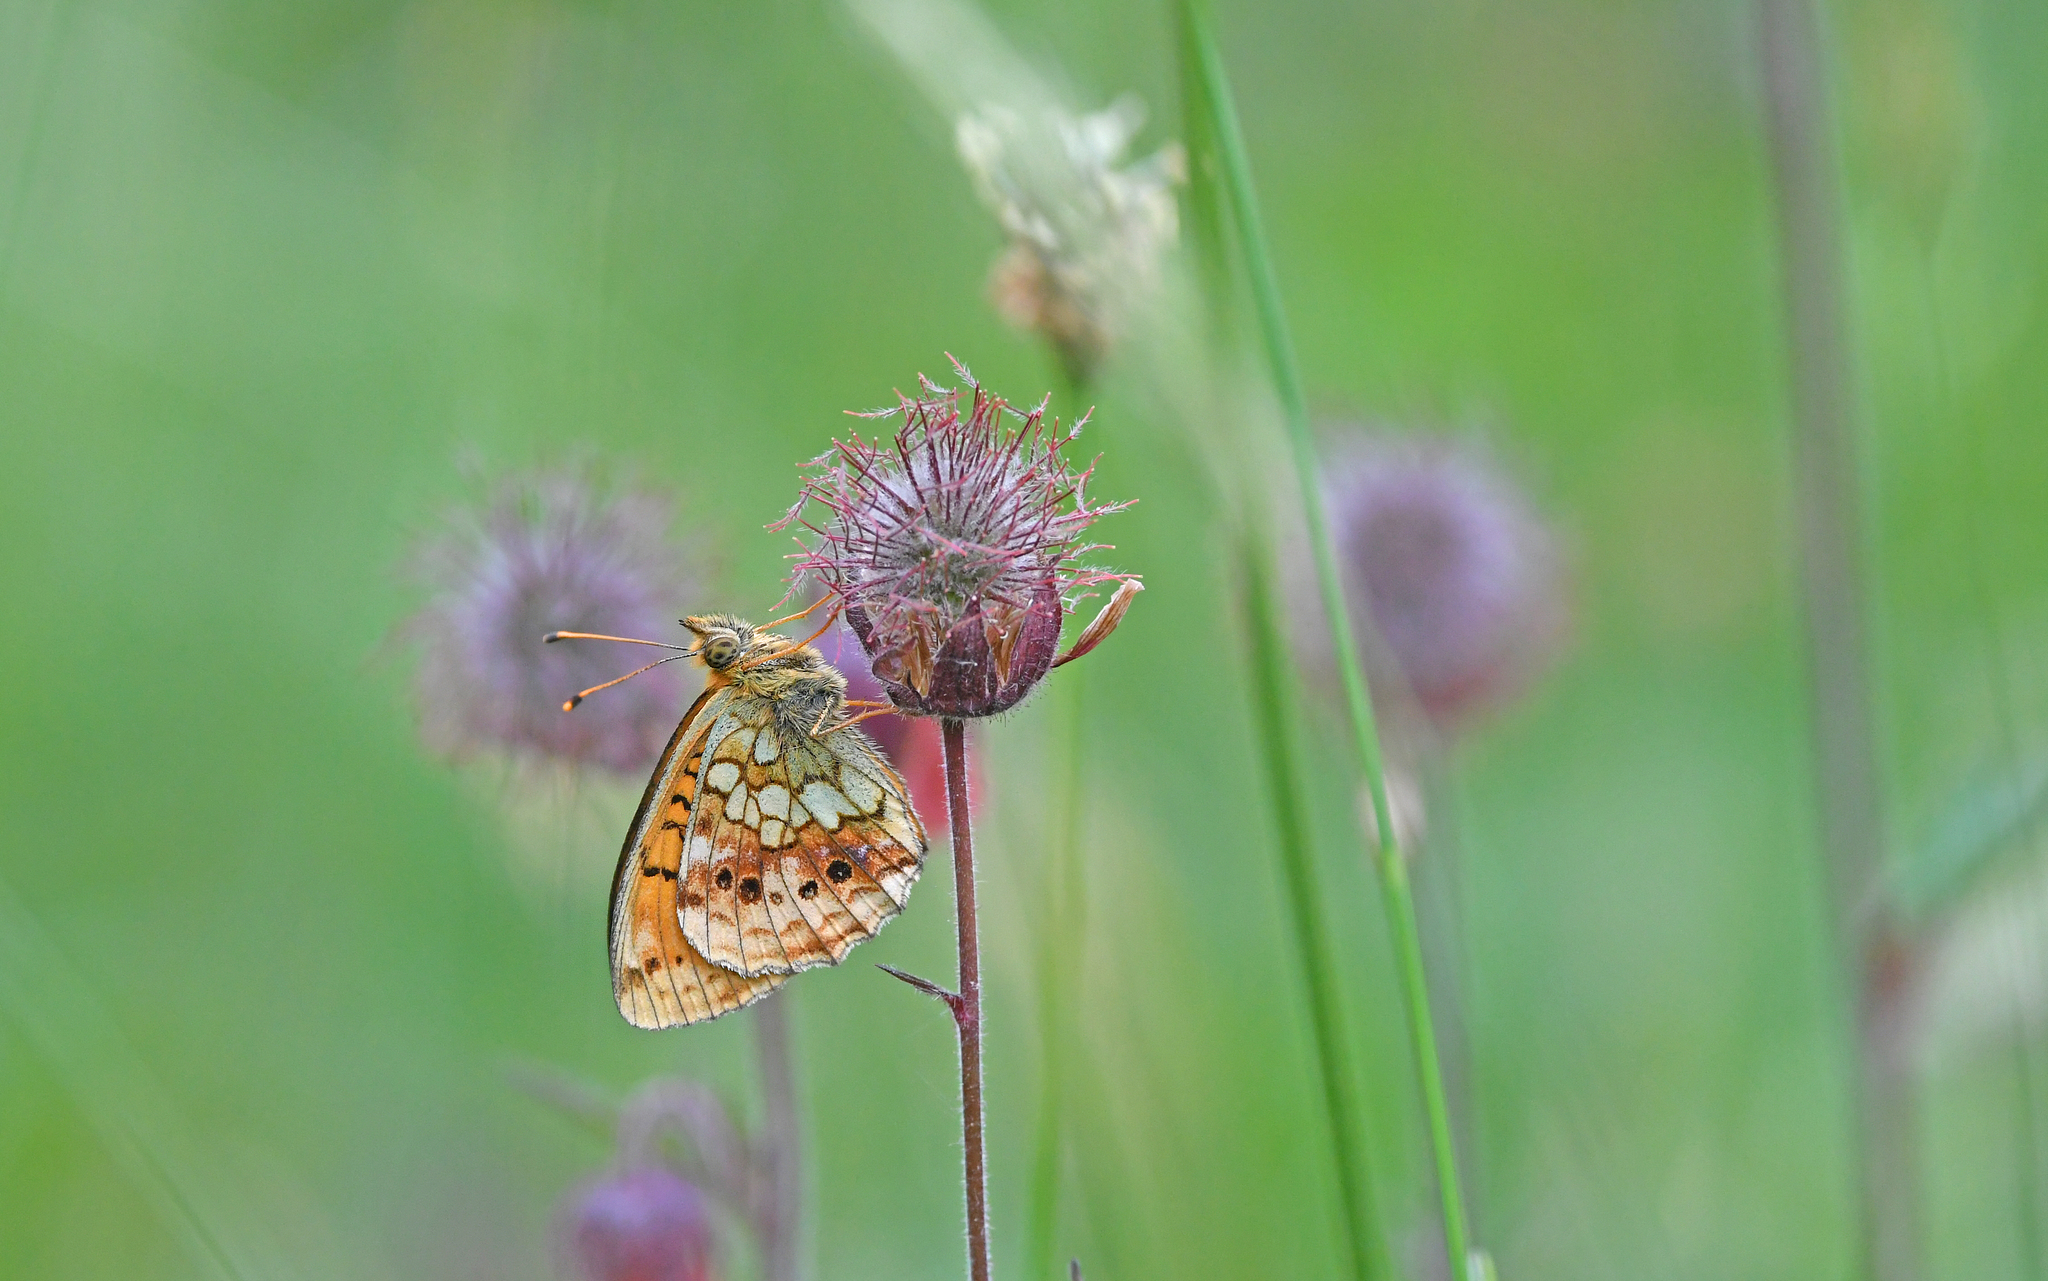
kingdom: Animalia
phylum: Arthropoda
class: Insecta
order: Lepidoptera
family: Nymphalidae
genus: Brenthis
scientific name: Brenthis ino
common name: Lesser marbled fritillary
